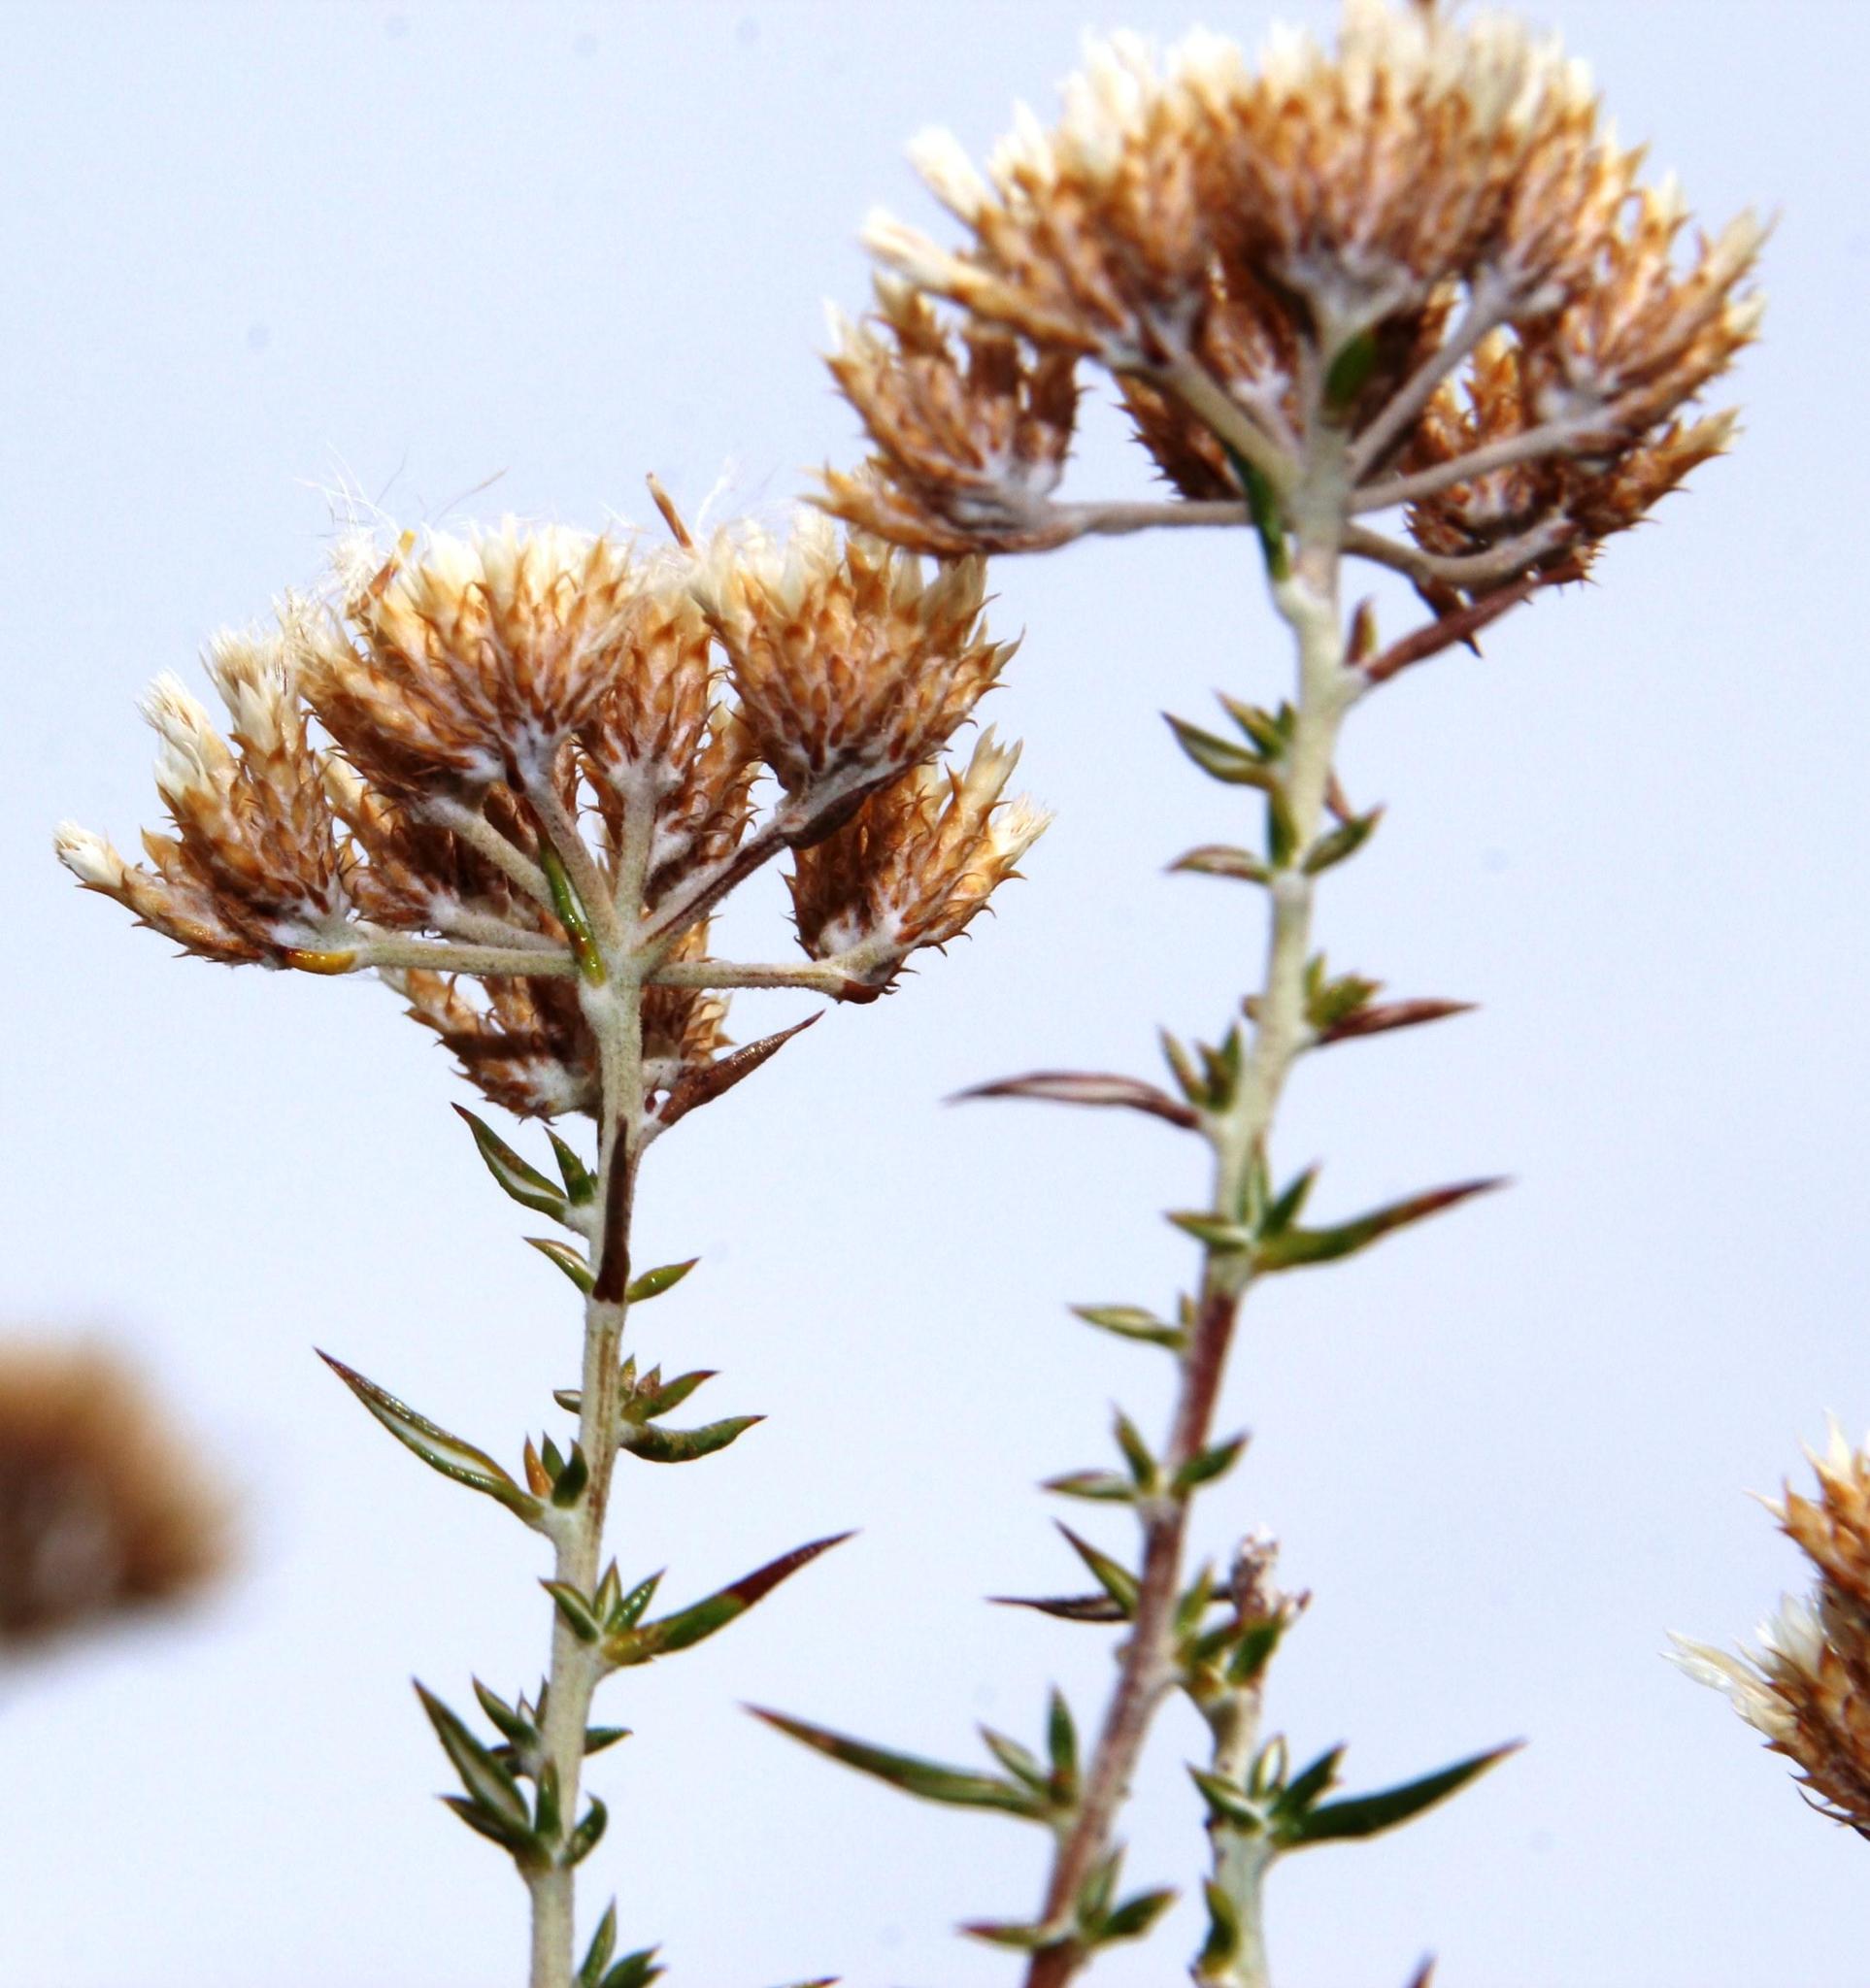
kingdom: Plantae
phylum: Tracheophyta
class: Magnoliopsida
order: Asterales
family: Asteraceae
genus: Metalasia
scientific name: Metalasia densa
